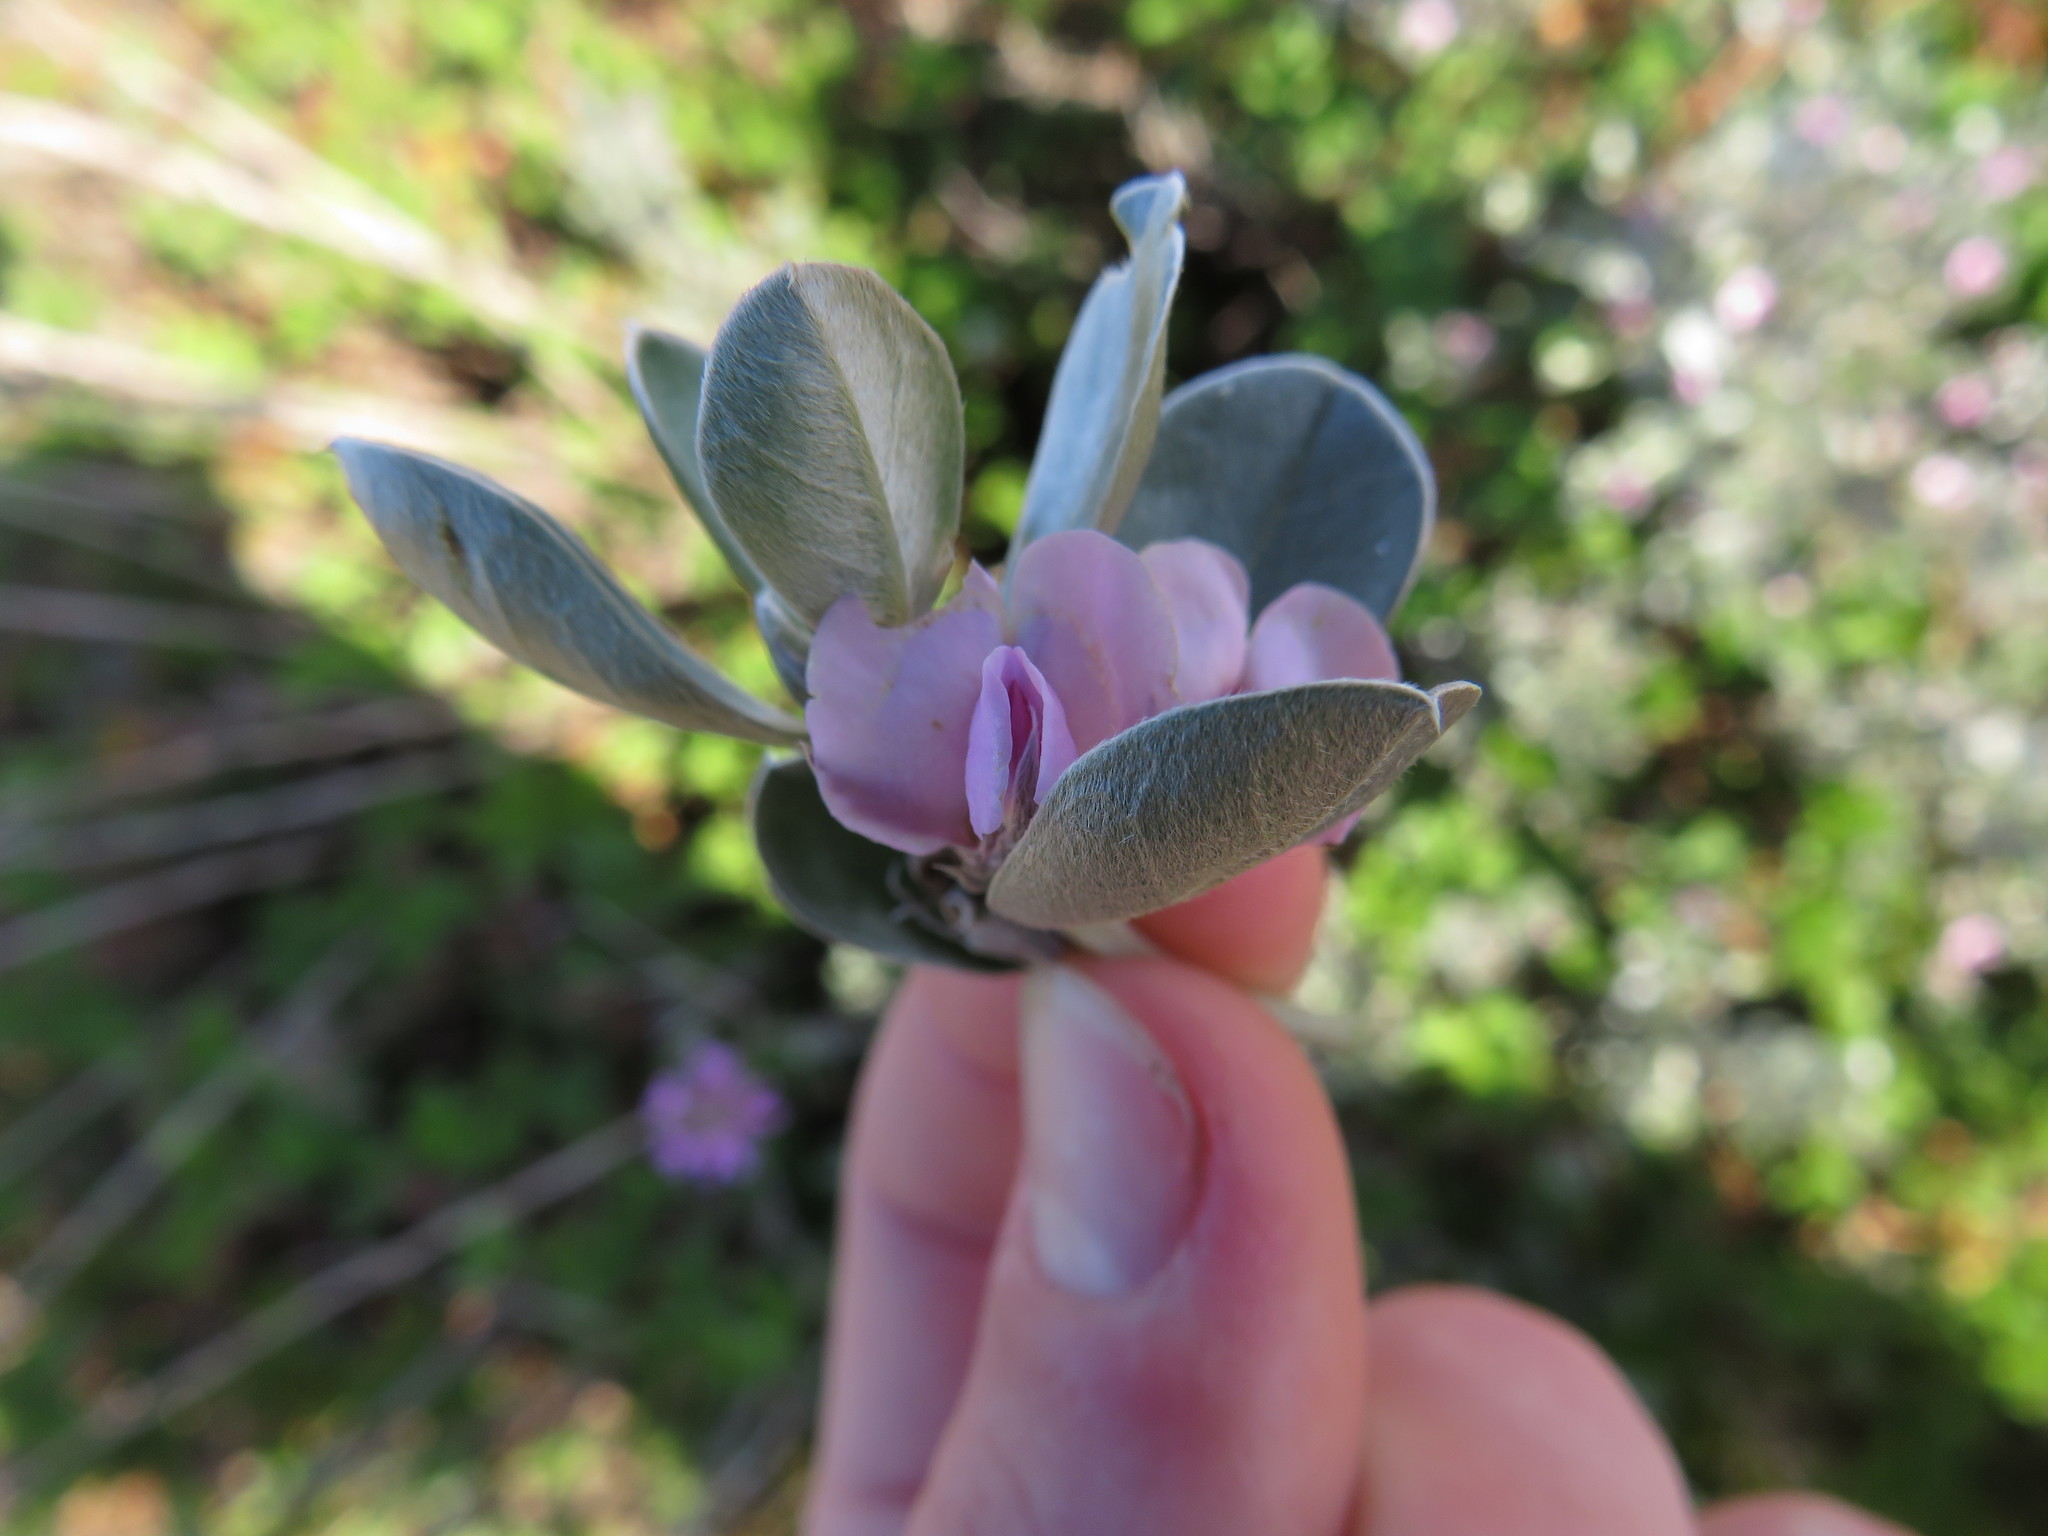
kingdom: Plantae
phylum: Tracheophyta
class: Magnoliopsida
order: Fabales
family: Fabaceae
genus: Podalyria
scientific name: Podalyria sericea
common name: Silver podalyria
